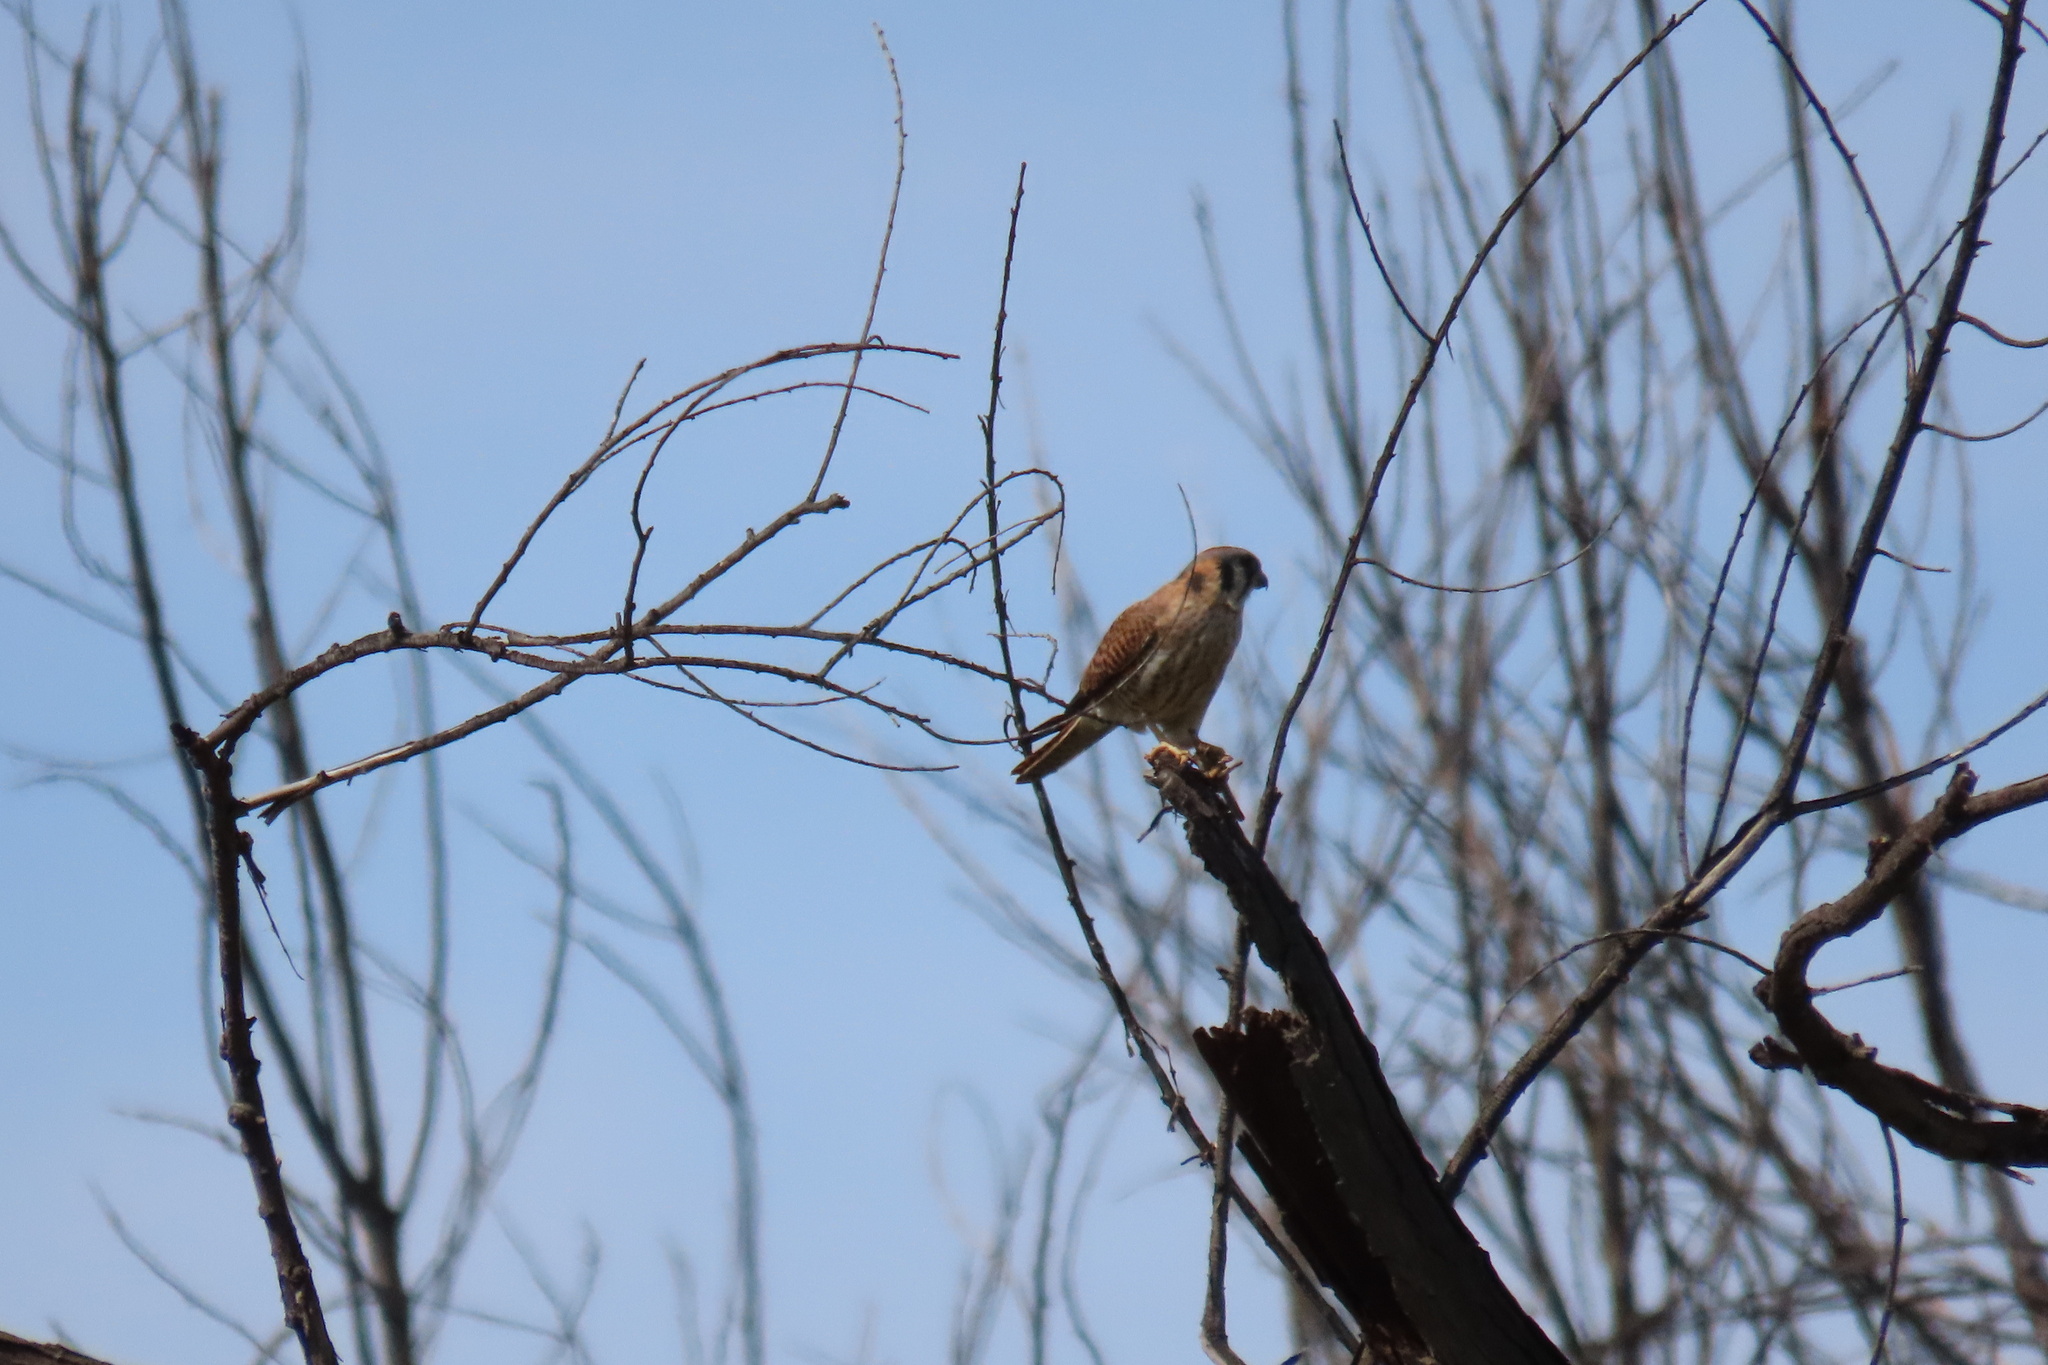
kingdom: Animalia
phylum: Chordata
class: Aves
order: Falconiformes
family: Falconidae
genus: Falco
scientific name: Falco sparverius
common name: American kestrel
